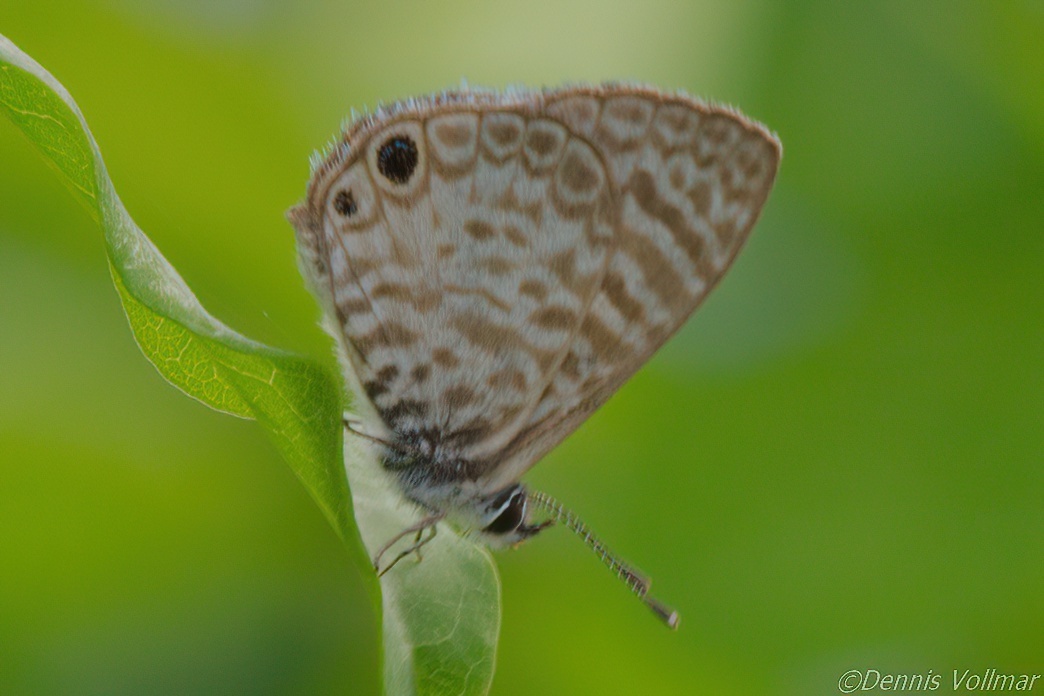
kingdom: Animalia
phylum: Arthropoda
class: Insecta
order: Lepidoptera
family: Lycaenidae
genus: Leptotes
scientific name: Leptotes cassius
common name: Cassius blue
